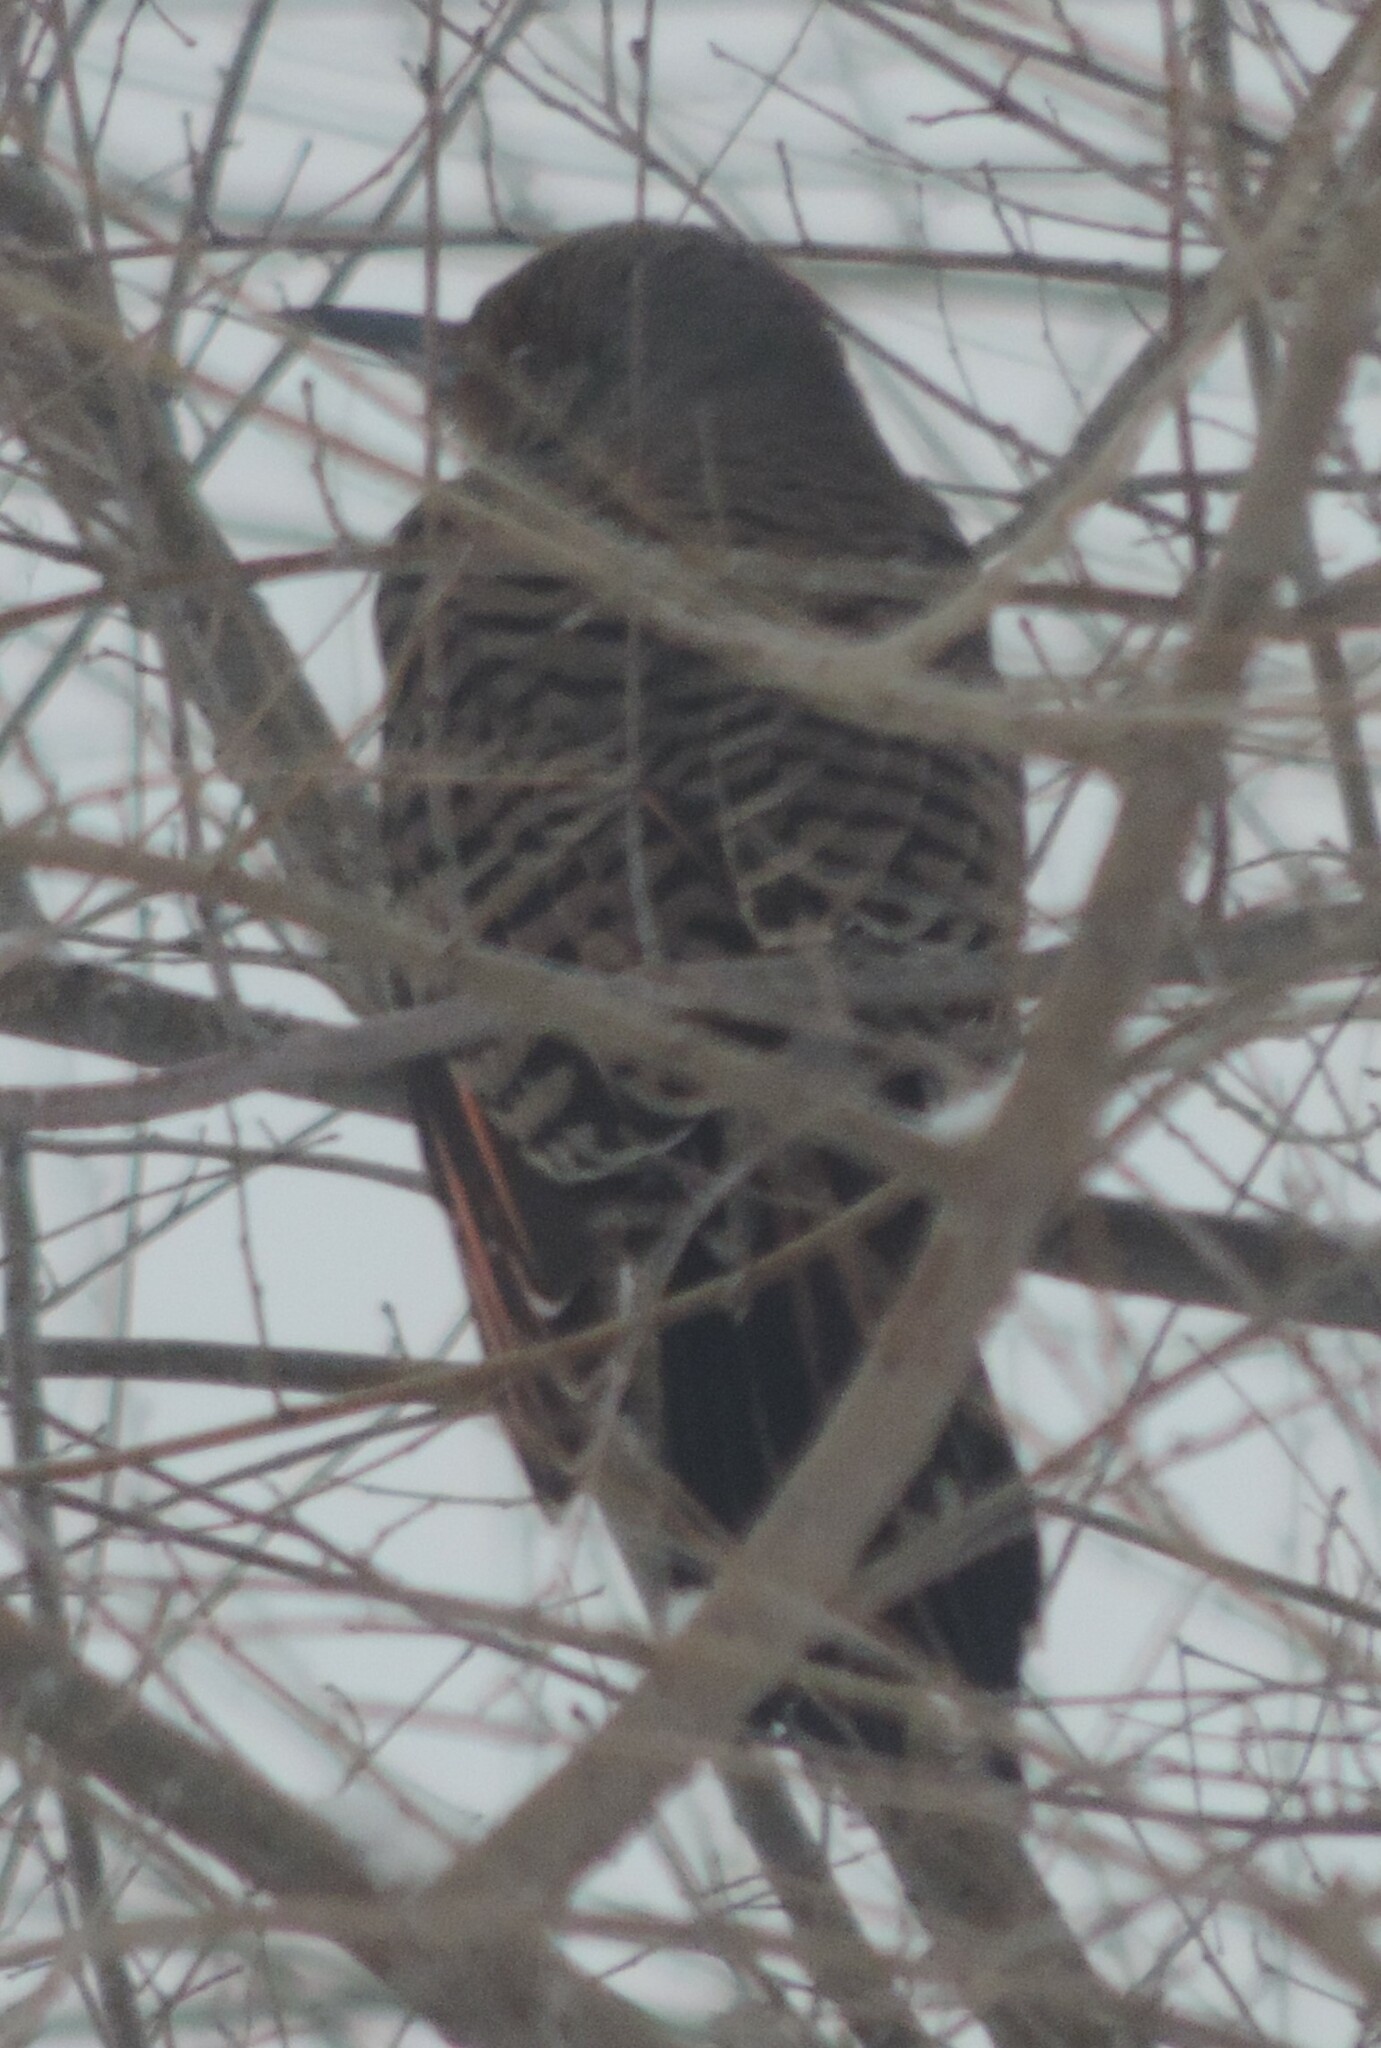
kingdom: Animalia
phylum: Chordata
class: Aves
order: Piciformes
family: Picidae
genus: Colaptes
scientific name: Colaptes auratus
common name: Northern flicker
